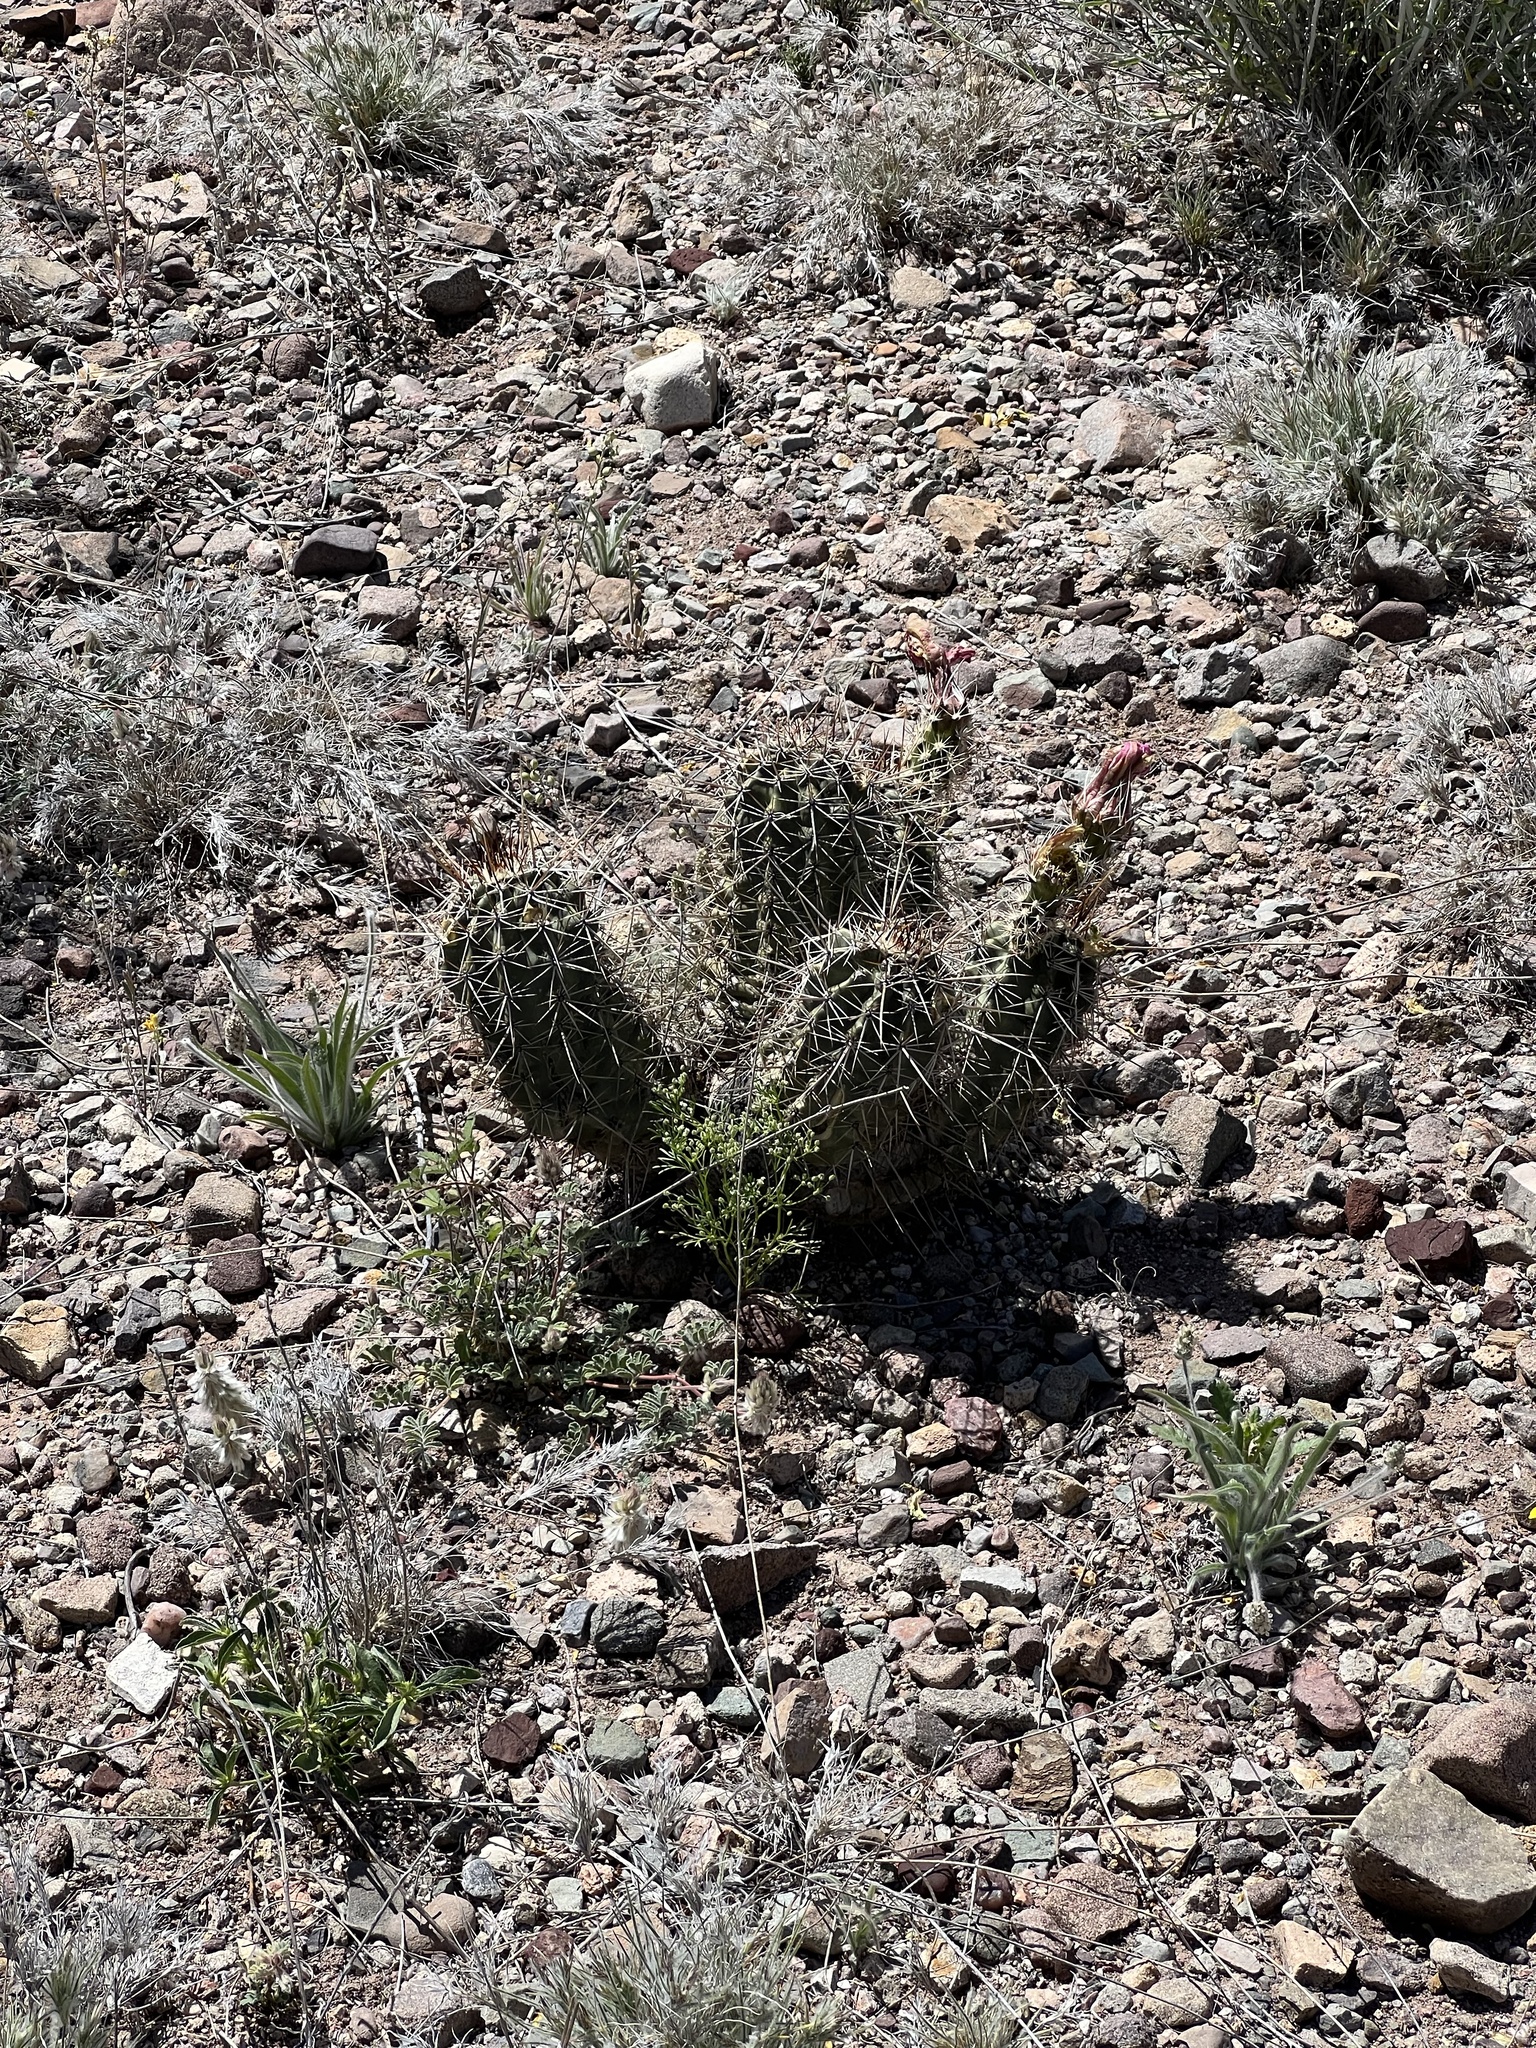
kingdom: Plantae
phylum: Tracheophyta
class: Magnoliopsida
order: Caryophyllales
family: Cactaceae
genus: Echinocereus
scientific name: Echinocereus fasciculatus
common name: Bundle hedgehog
